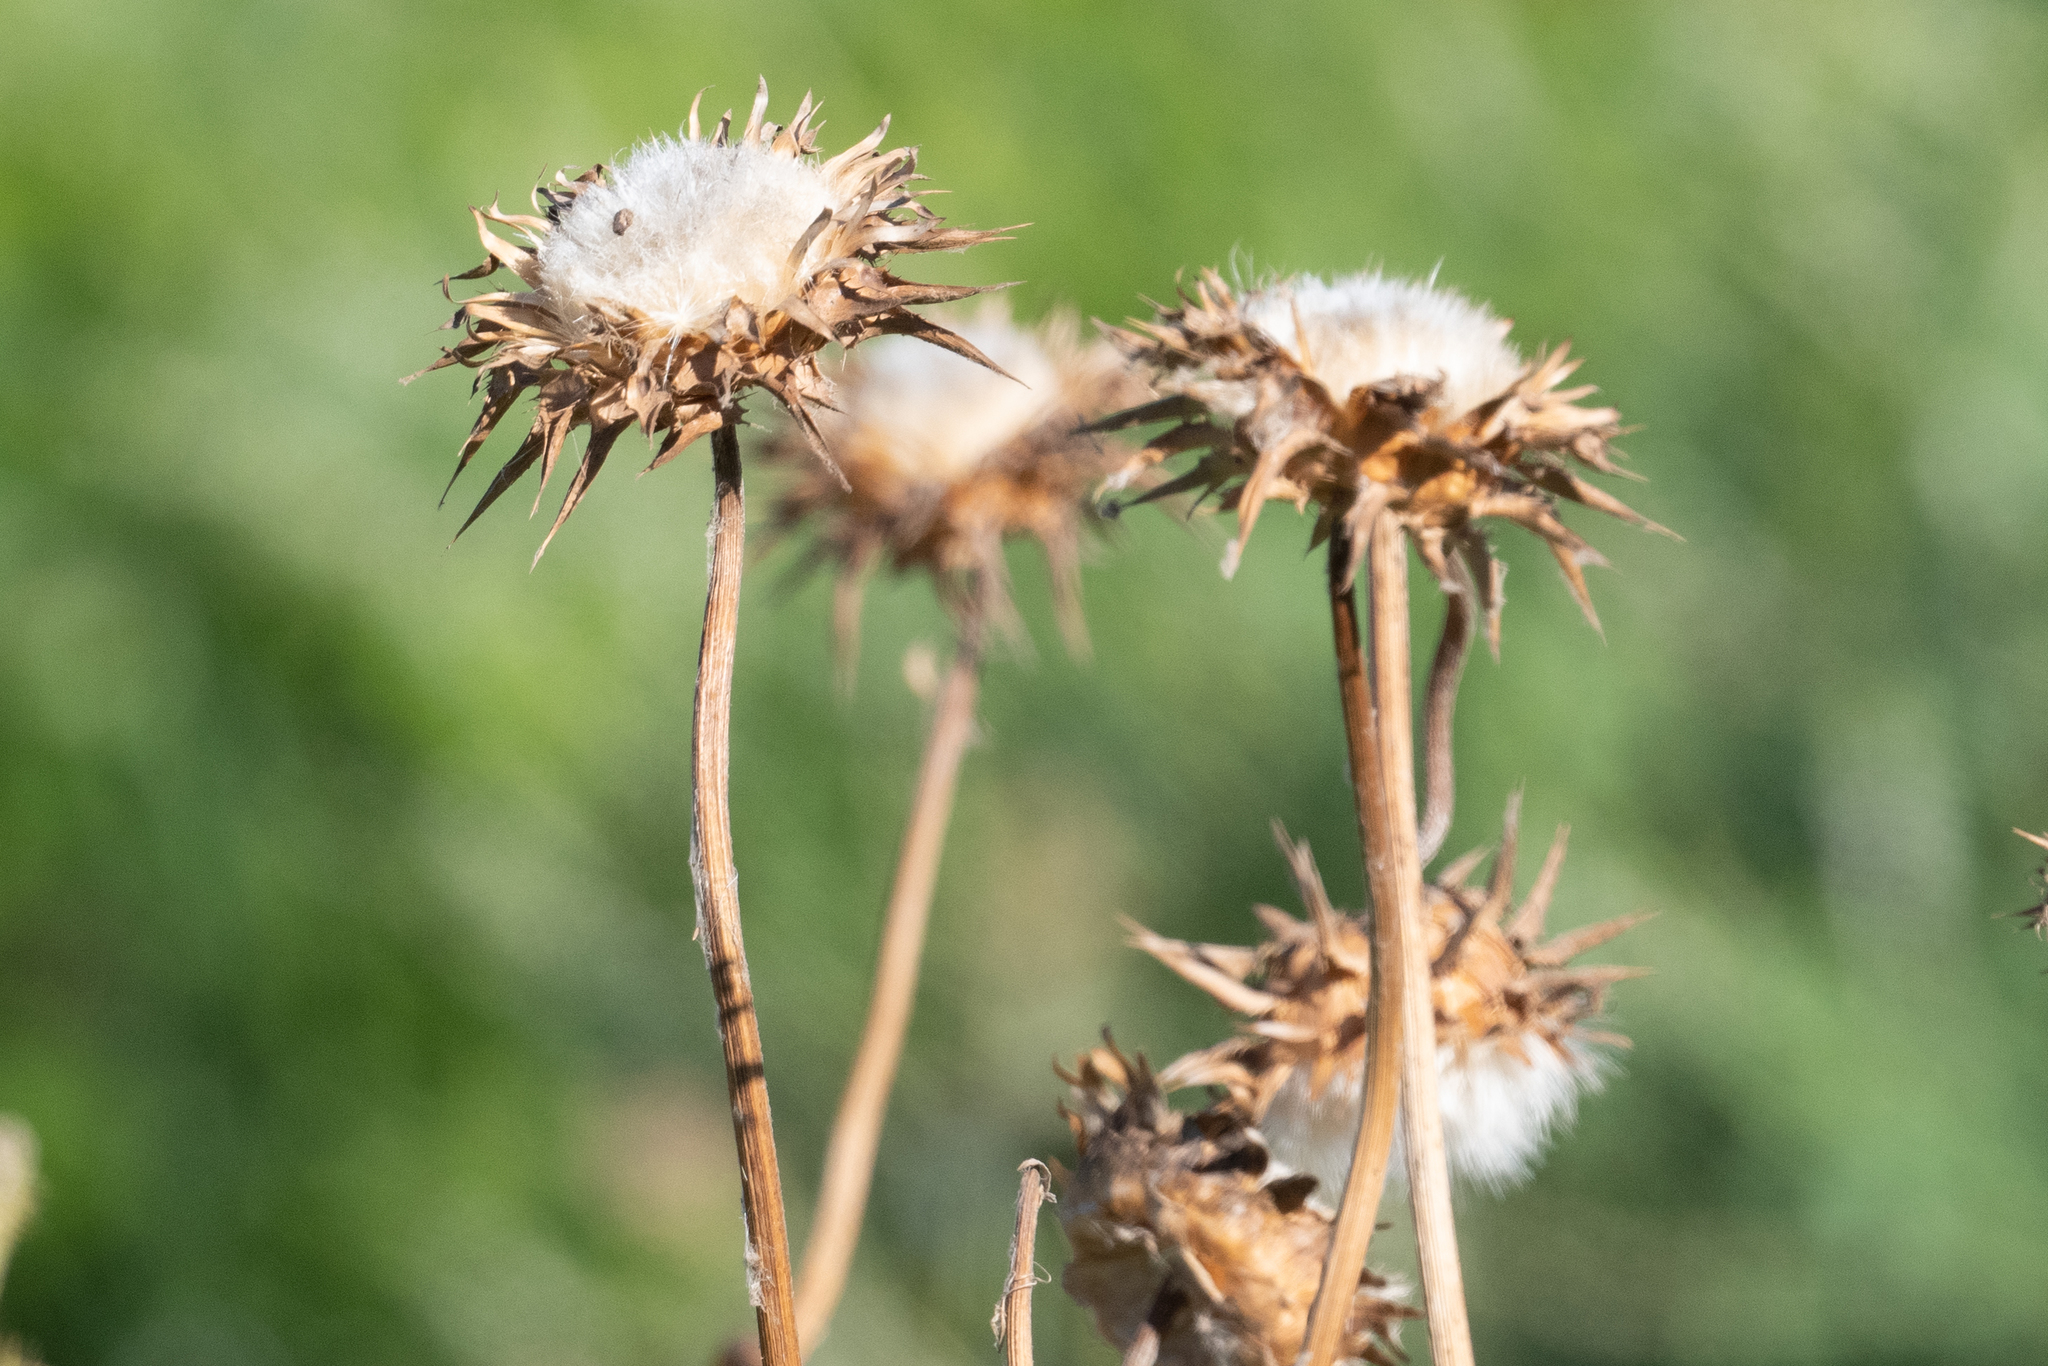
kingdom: Plantae
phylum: Tracheophyta
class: Magnoliopsida
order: Asterales
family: Asteraceae
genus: Silybum
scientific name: Silybum marianum
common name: Milk thistle
